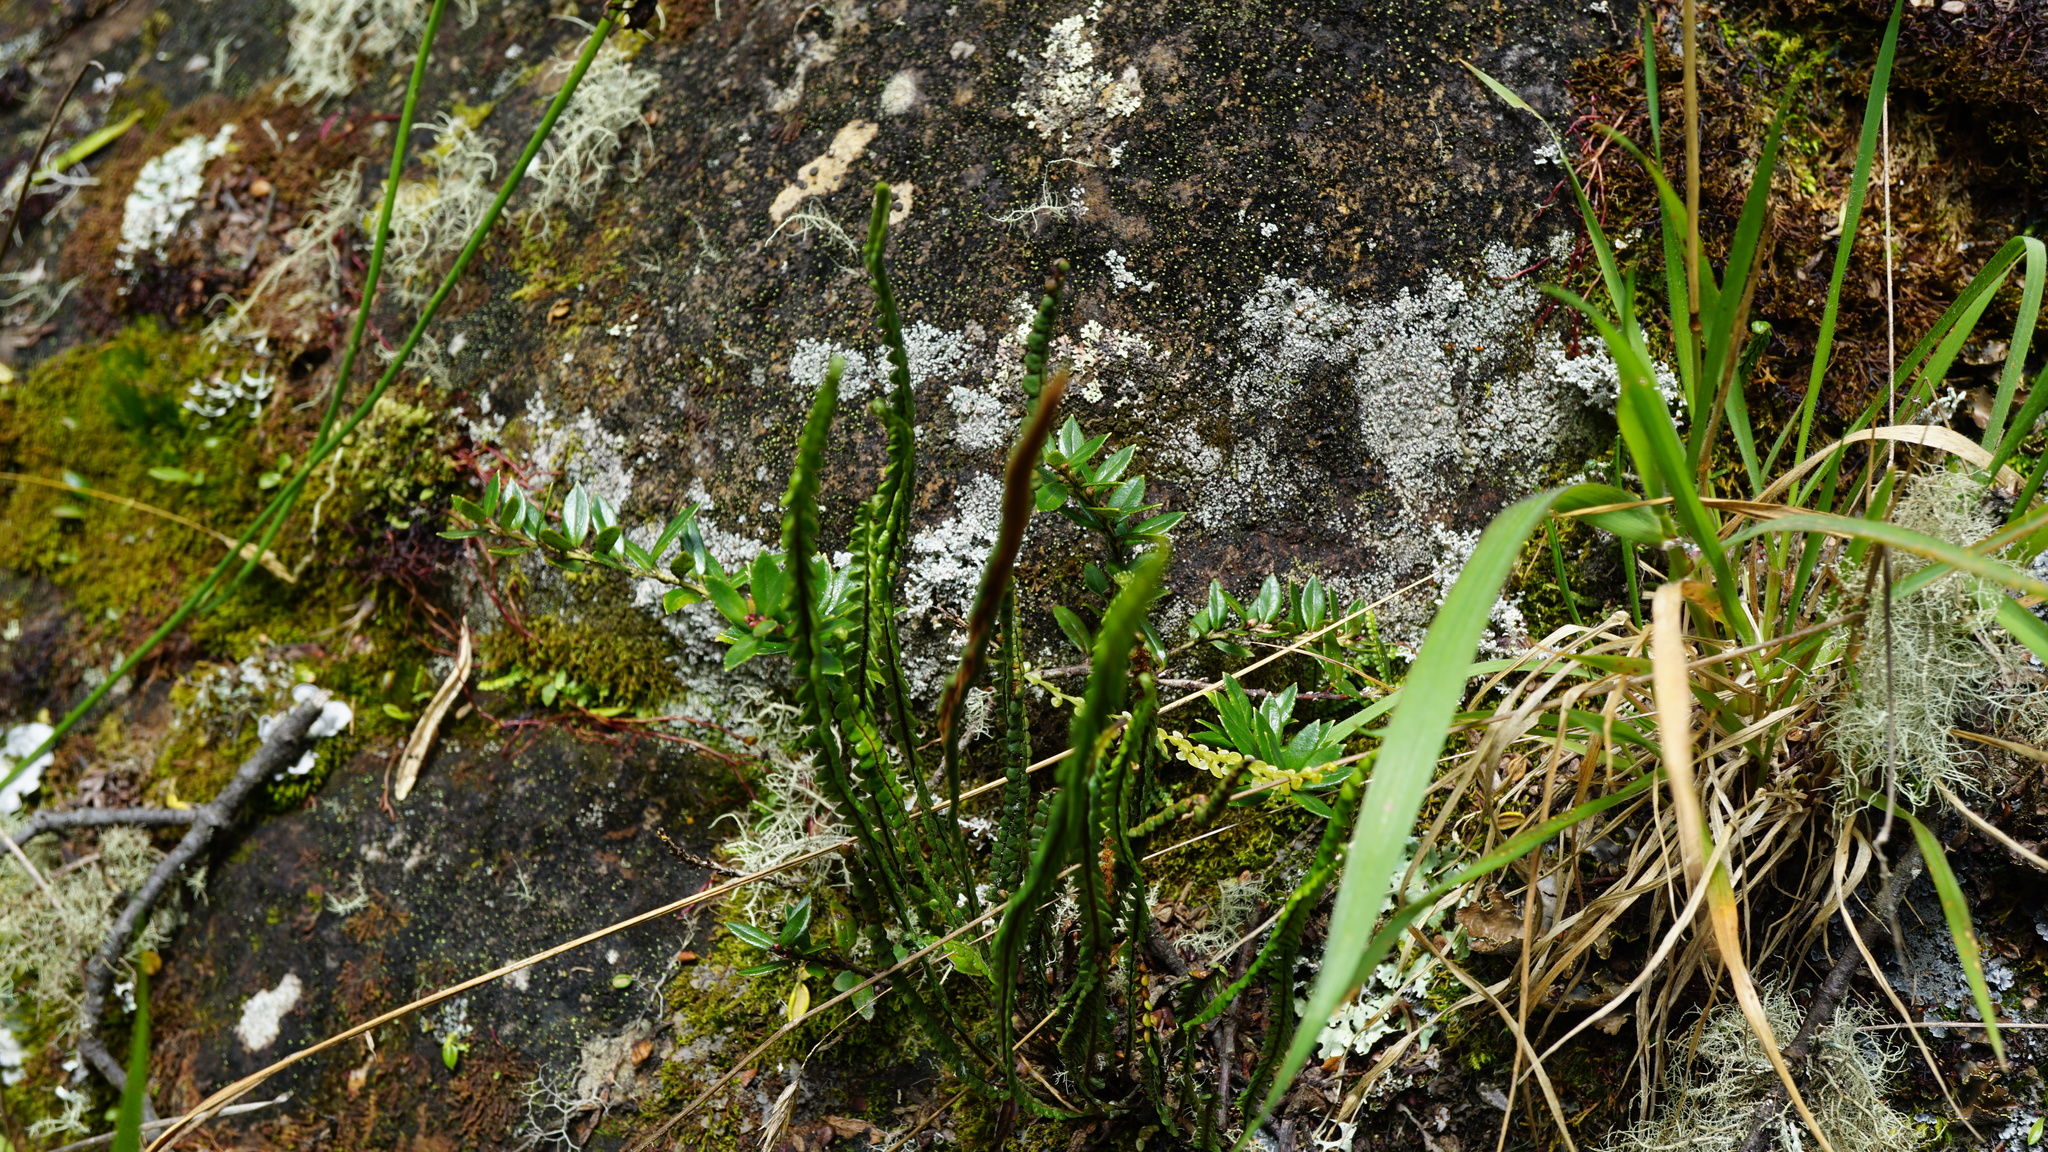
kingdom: Plantae
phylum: Tracheophyta
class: Polypodiopsida
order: Polypodiales
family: Polypodiaceae
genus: Melpomene
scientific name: Melpomene moniliformis
